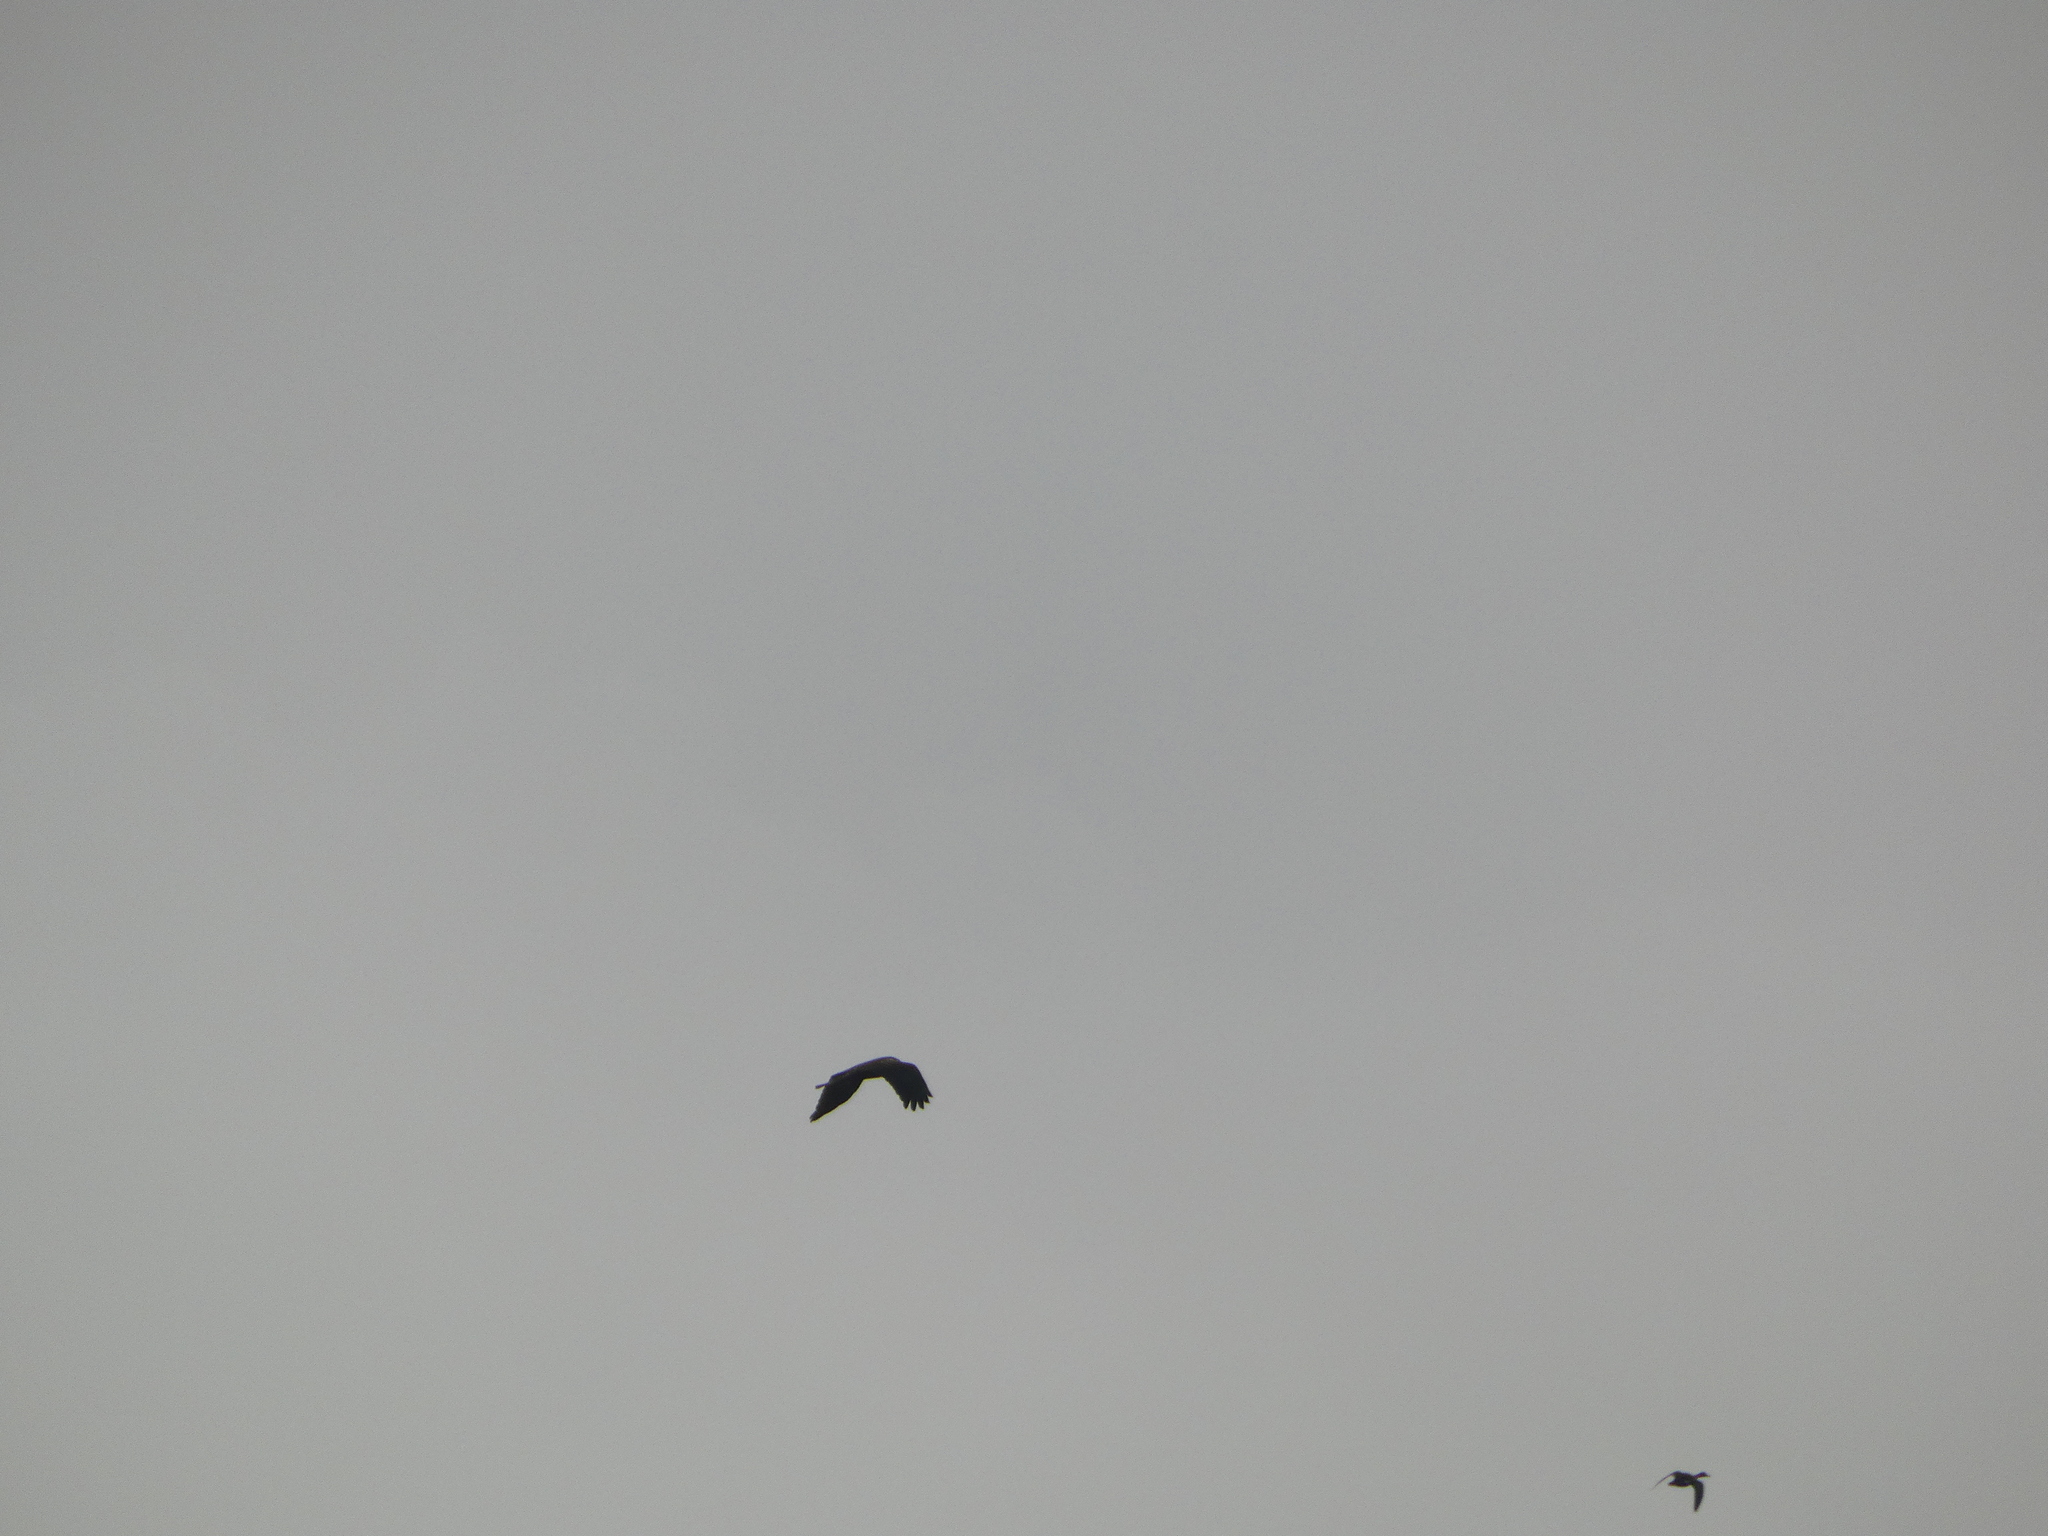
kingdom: Animalia
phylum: Chordata
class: Aves
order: Accipitriformes
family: Accipitridae
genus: Circus
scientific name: Circus aeruginosus
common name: Western marsh harrier
